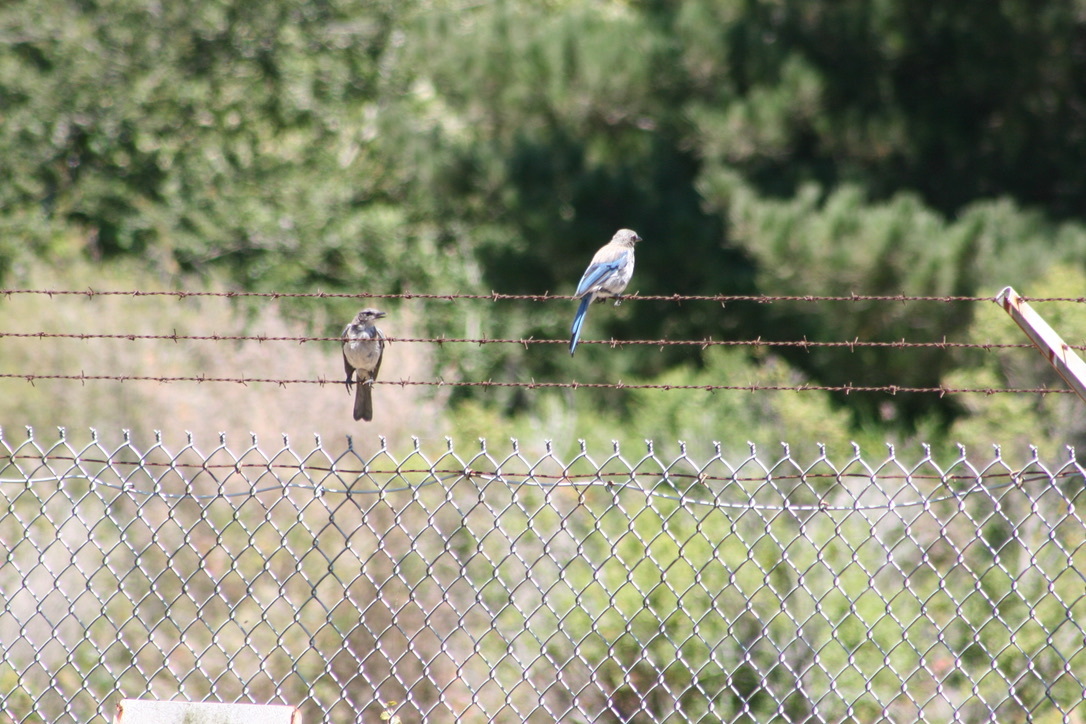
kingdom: Animalia
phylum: Chordata
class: Aves
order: Passeriformes
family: Turdidae
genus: Sialia
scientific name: Sialia mexicana
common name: Western bluebird
